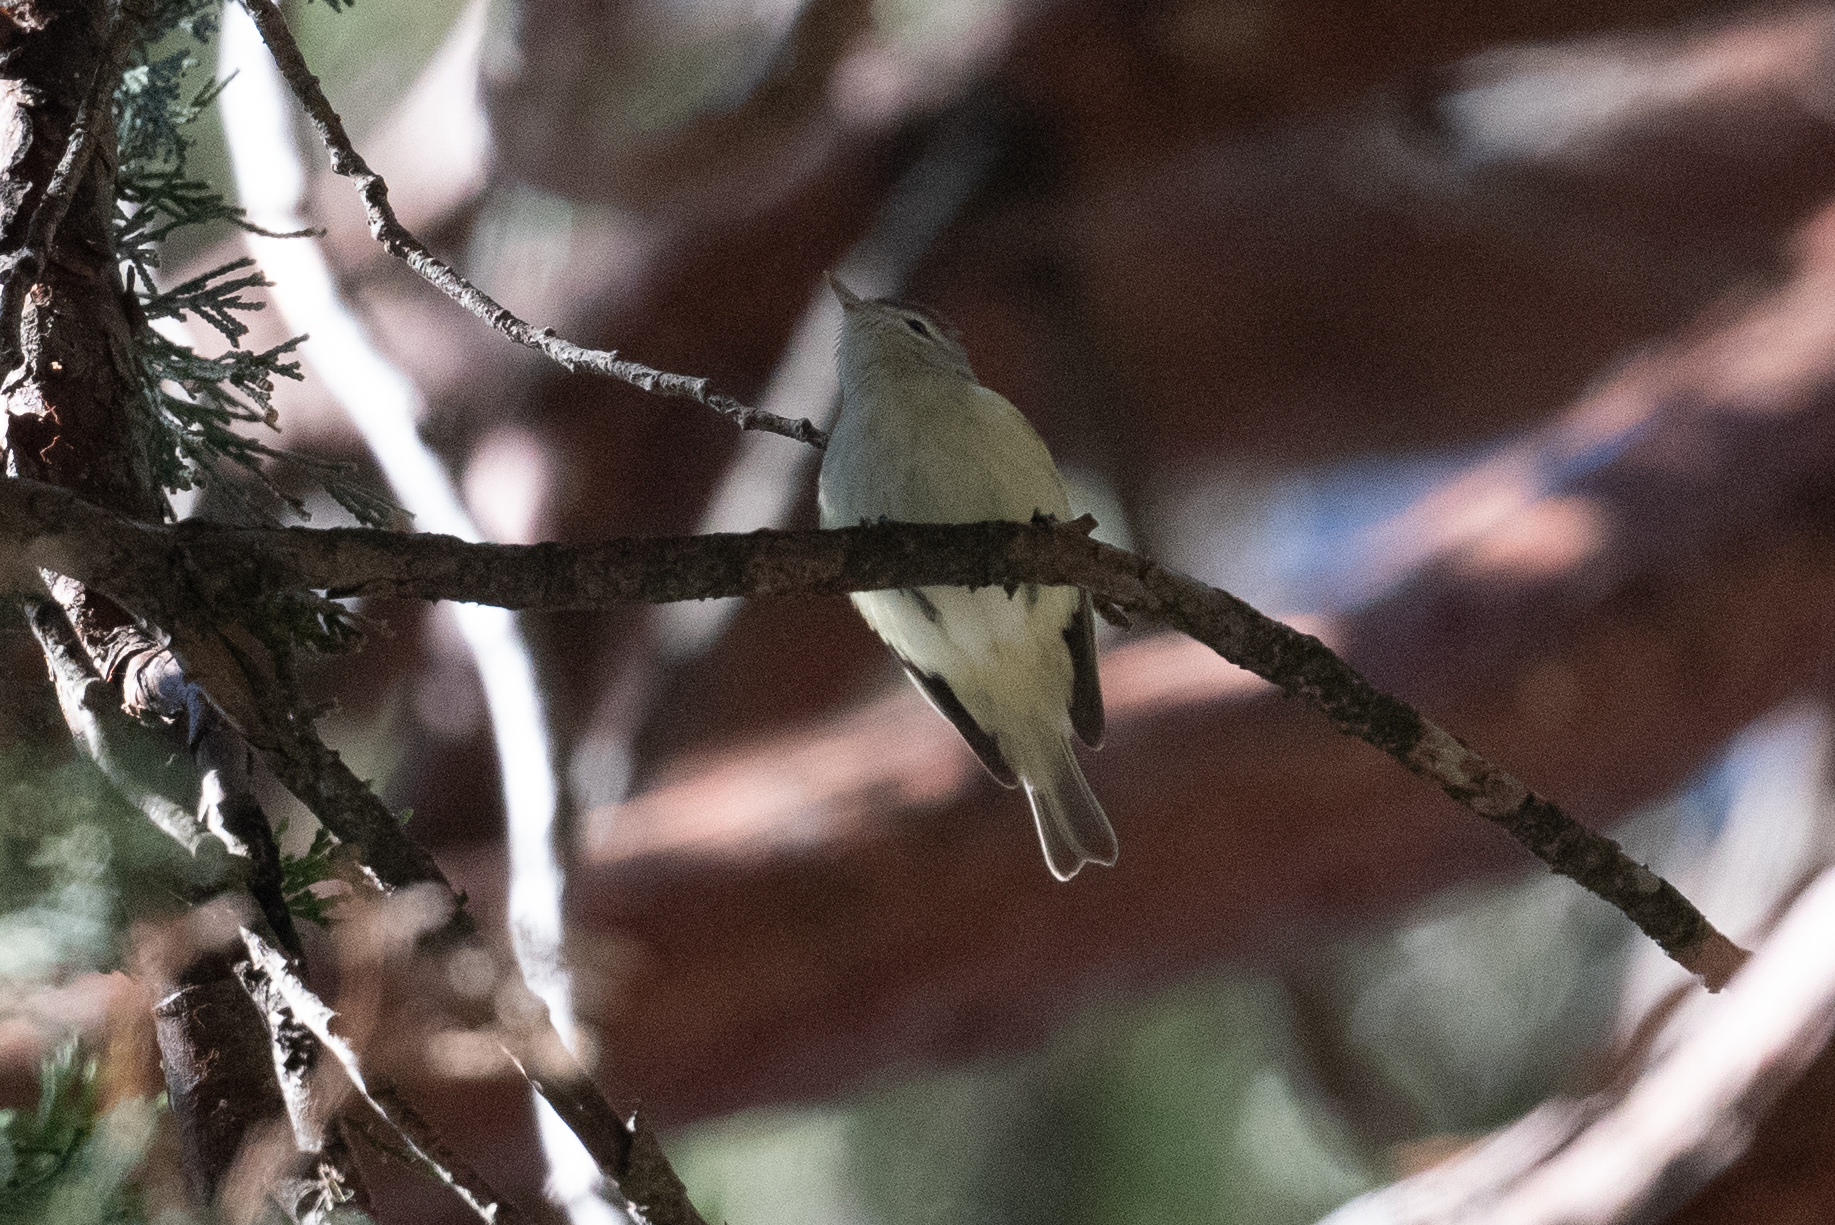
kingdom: Animalia
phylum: Chordata
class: Aves
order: Passeriformes
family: Vireonidae
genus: Vireo
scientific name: Vireo gilvus
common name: Warbling vireo
